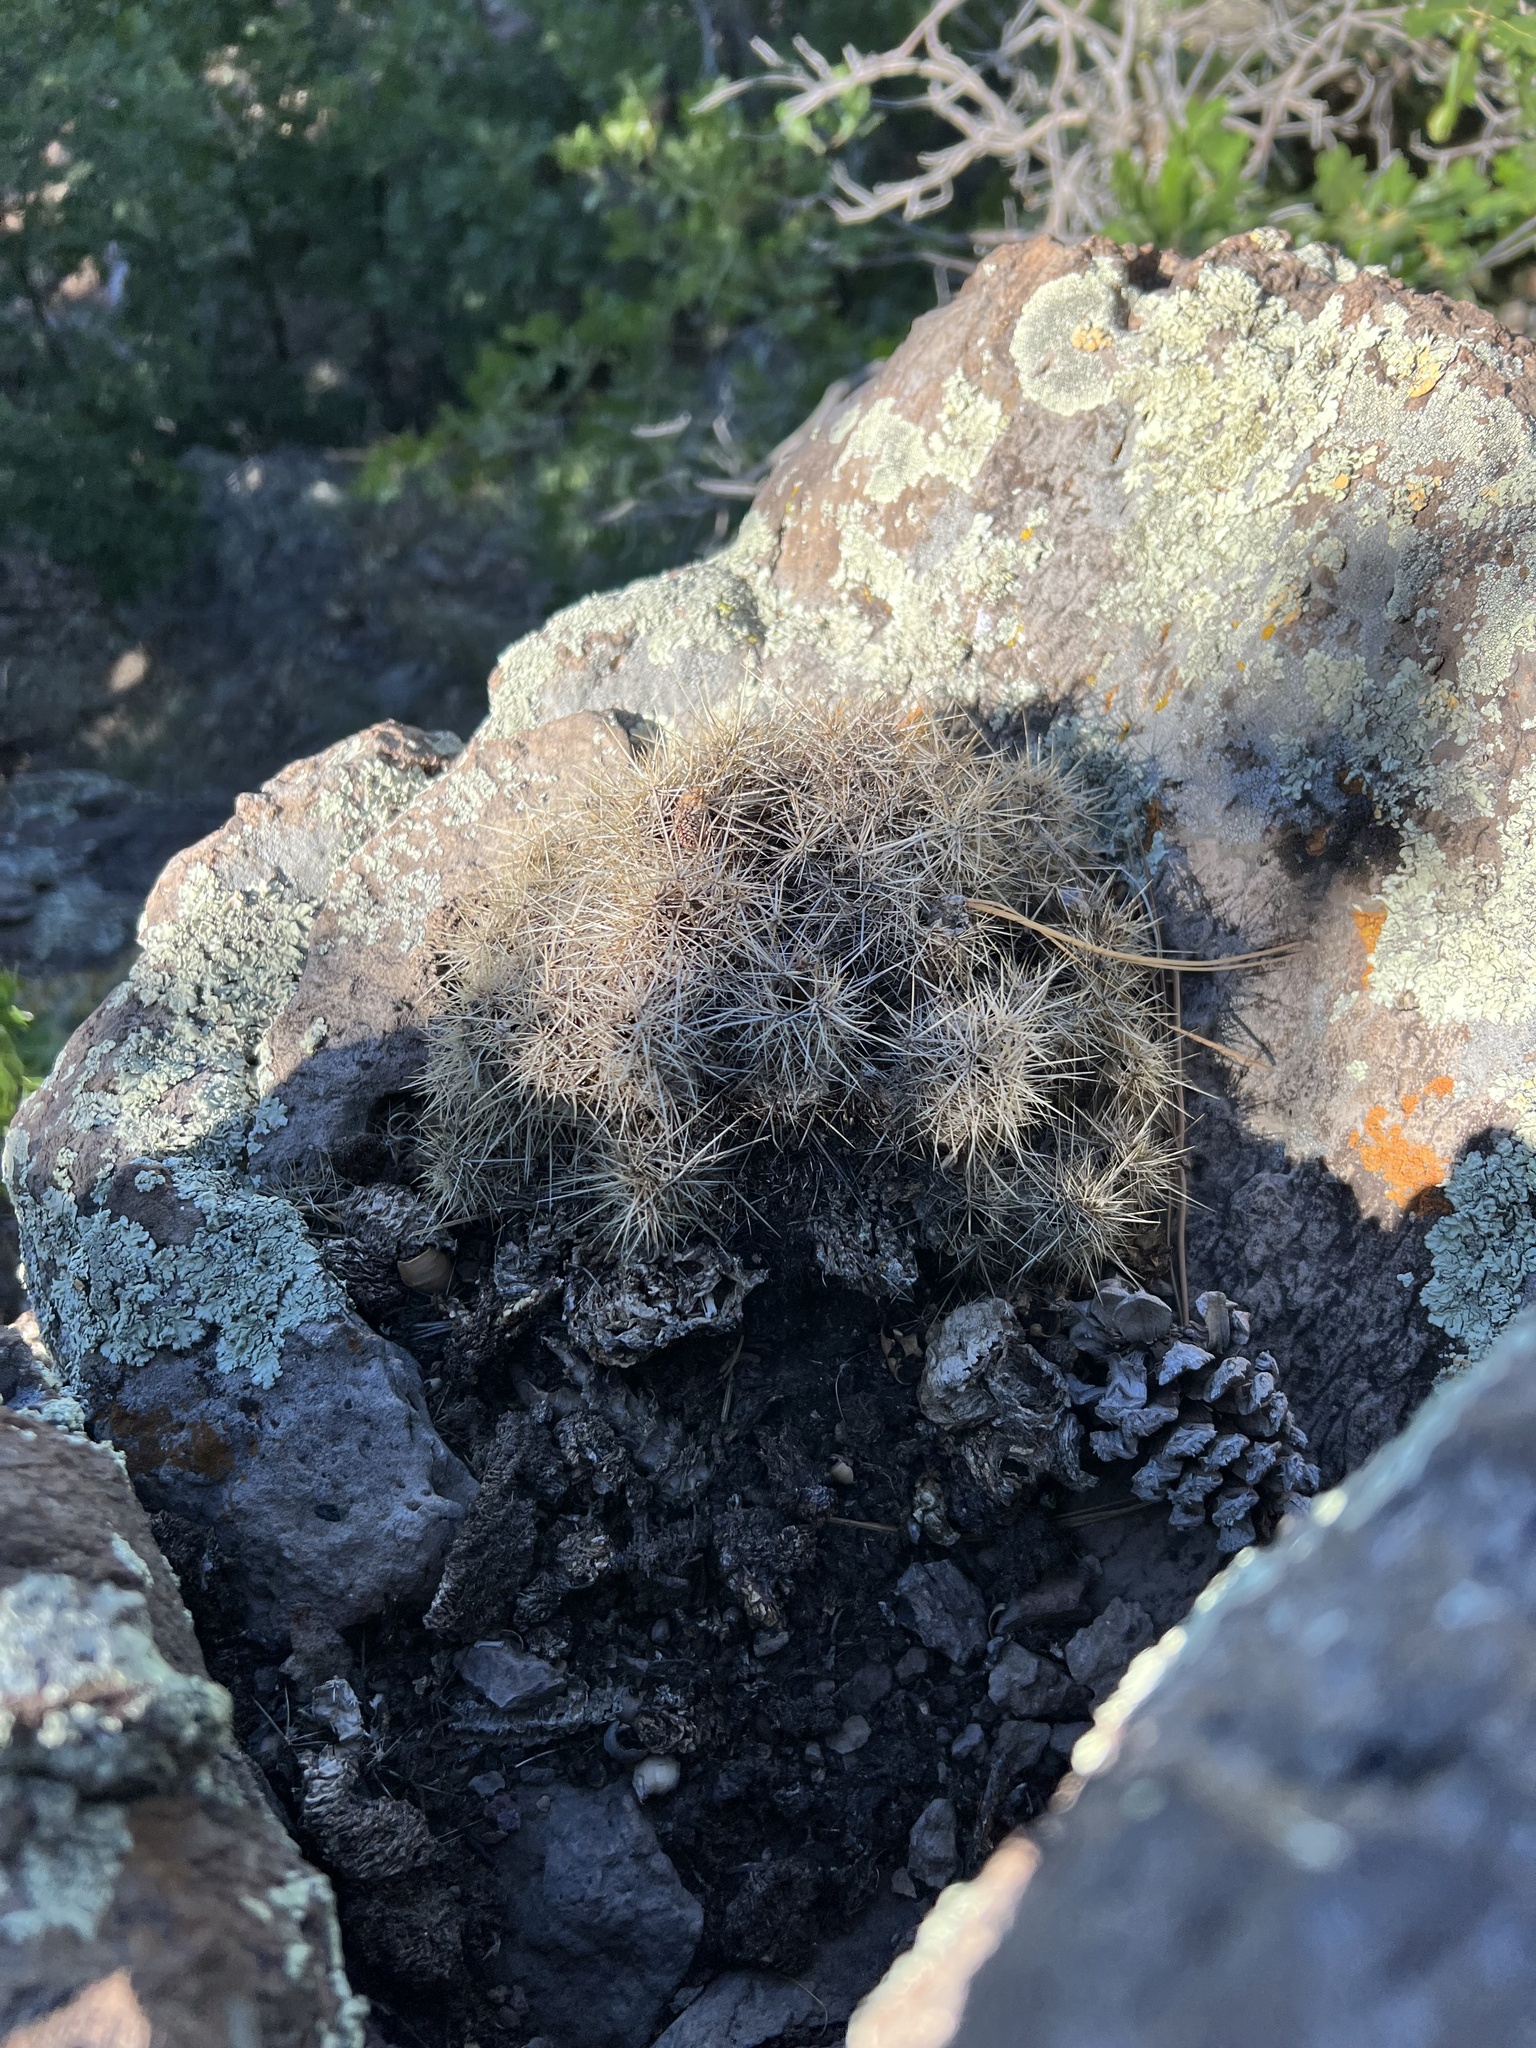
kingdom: Plantae
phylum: Tracheophyta
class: Magnoliopsida
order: Caryophyllales
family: Cactaceae
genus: Echinocereus
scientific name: Echinocereus bakeri
